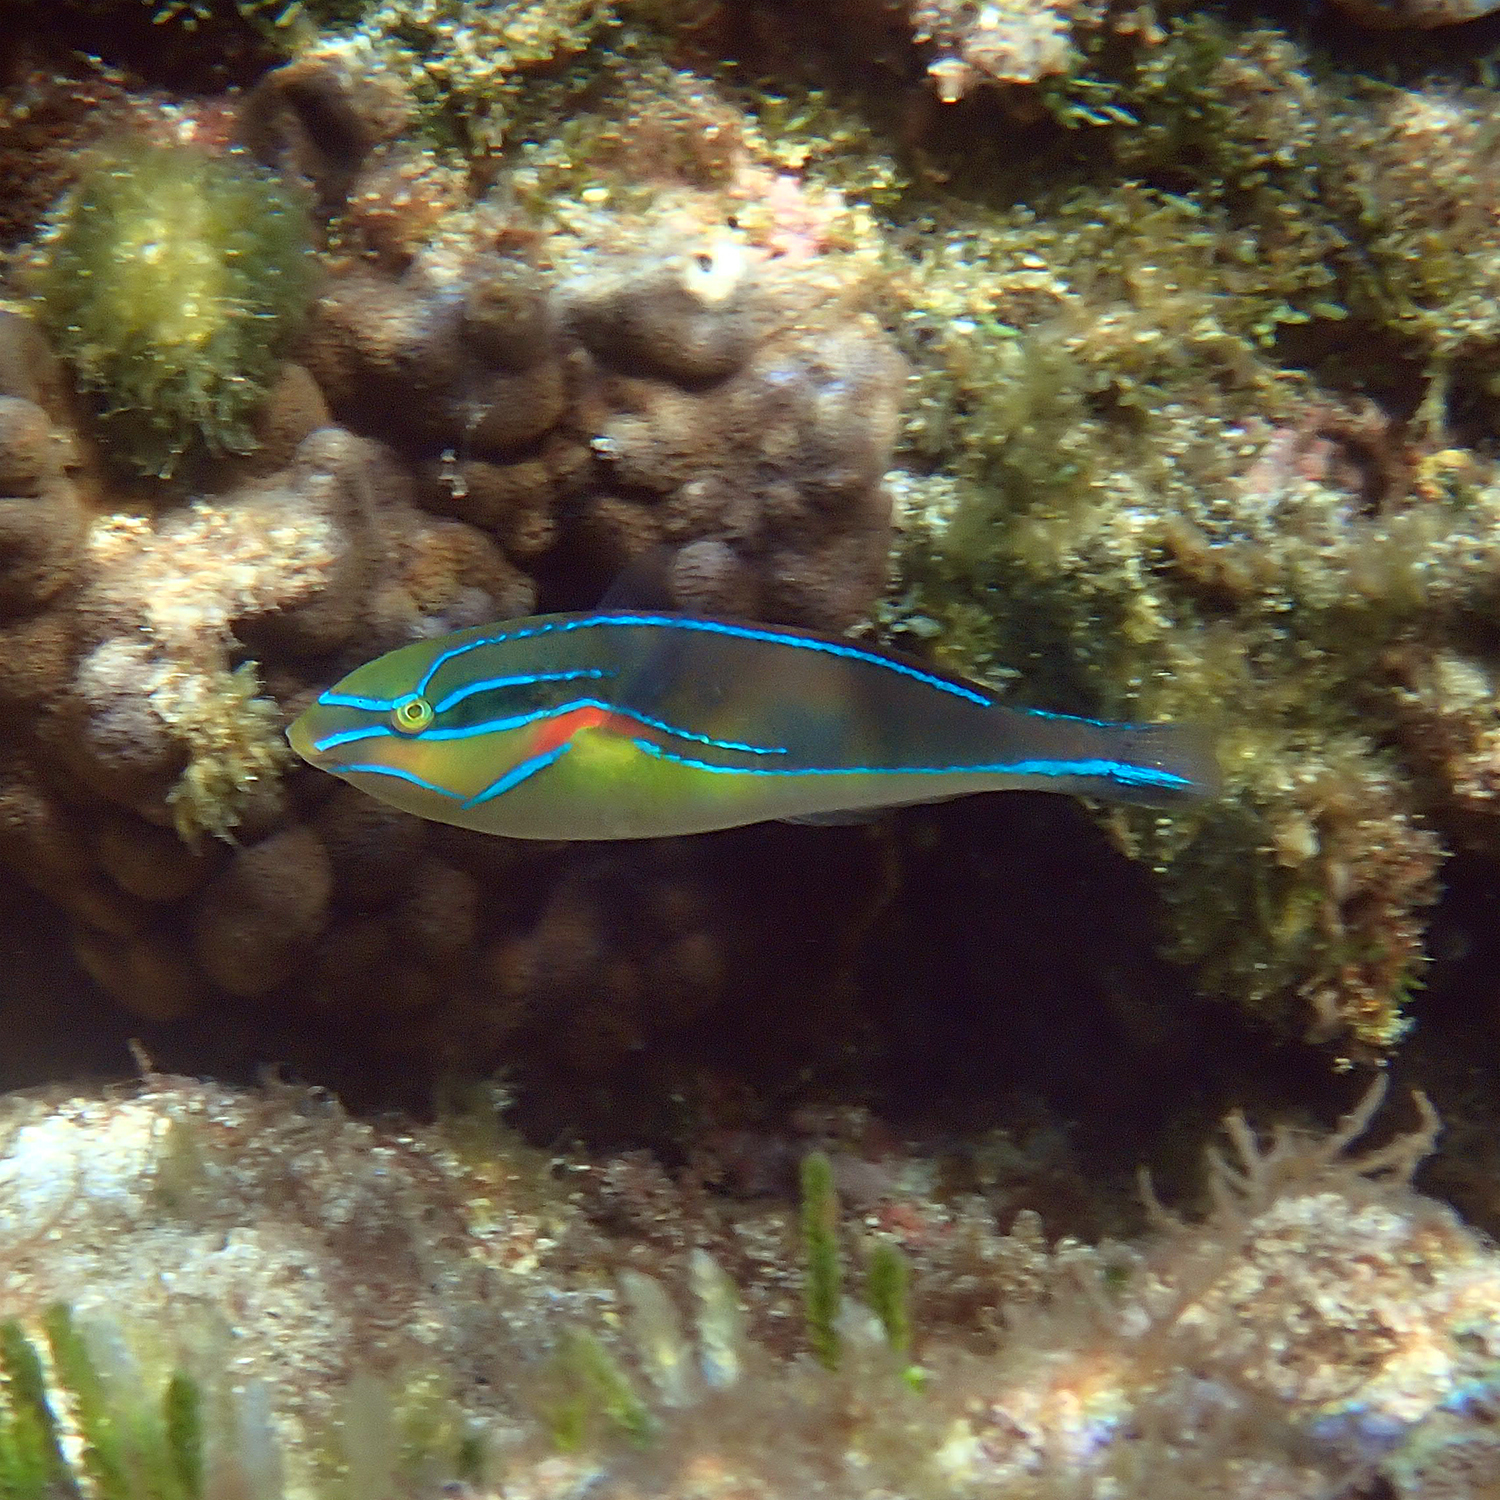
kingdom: Animalia
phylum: Chordata
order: Perciformes
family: Labridae
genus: Stethojulis
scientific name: Stethojulis bandanensis
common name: Red shoulder wrasse
